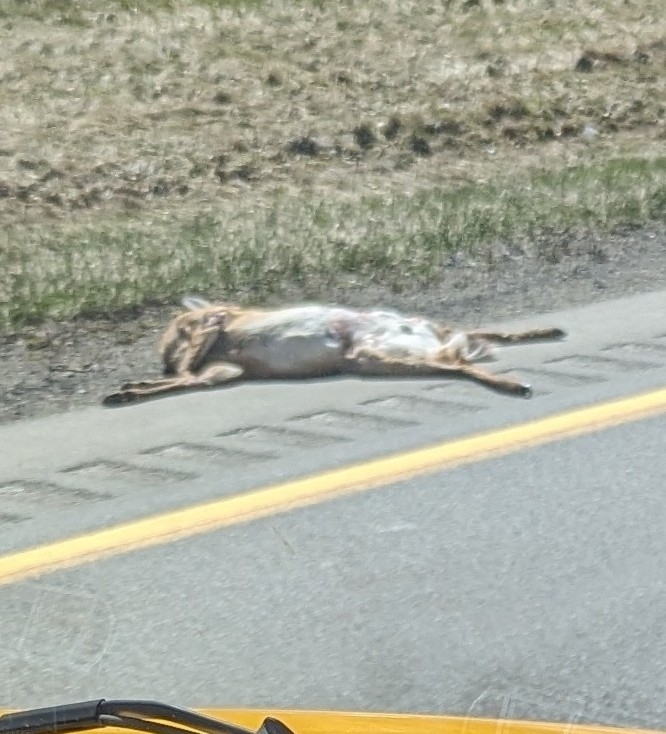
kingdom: Animalia
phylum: Chordata
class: Mammalia
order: Artiodactyla
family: Cervidae
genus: Odocoileus
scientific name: Odocoileus virginianus
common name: White-tailed deer
